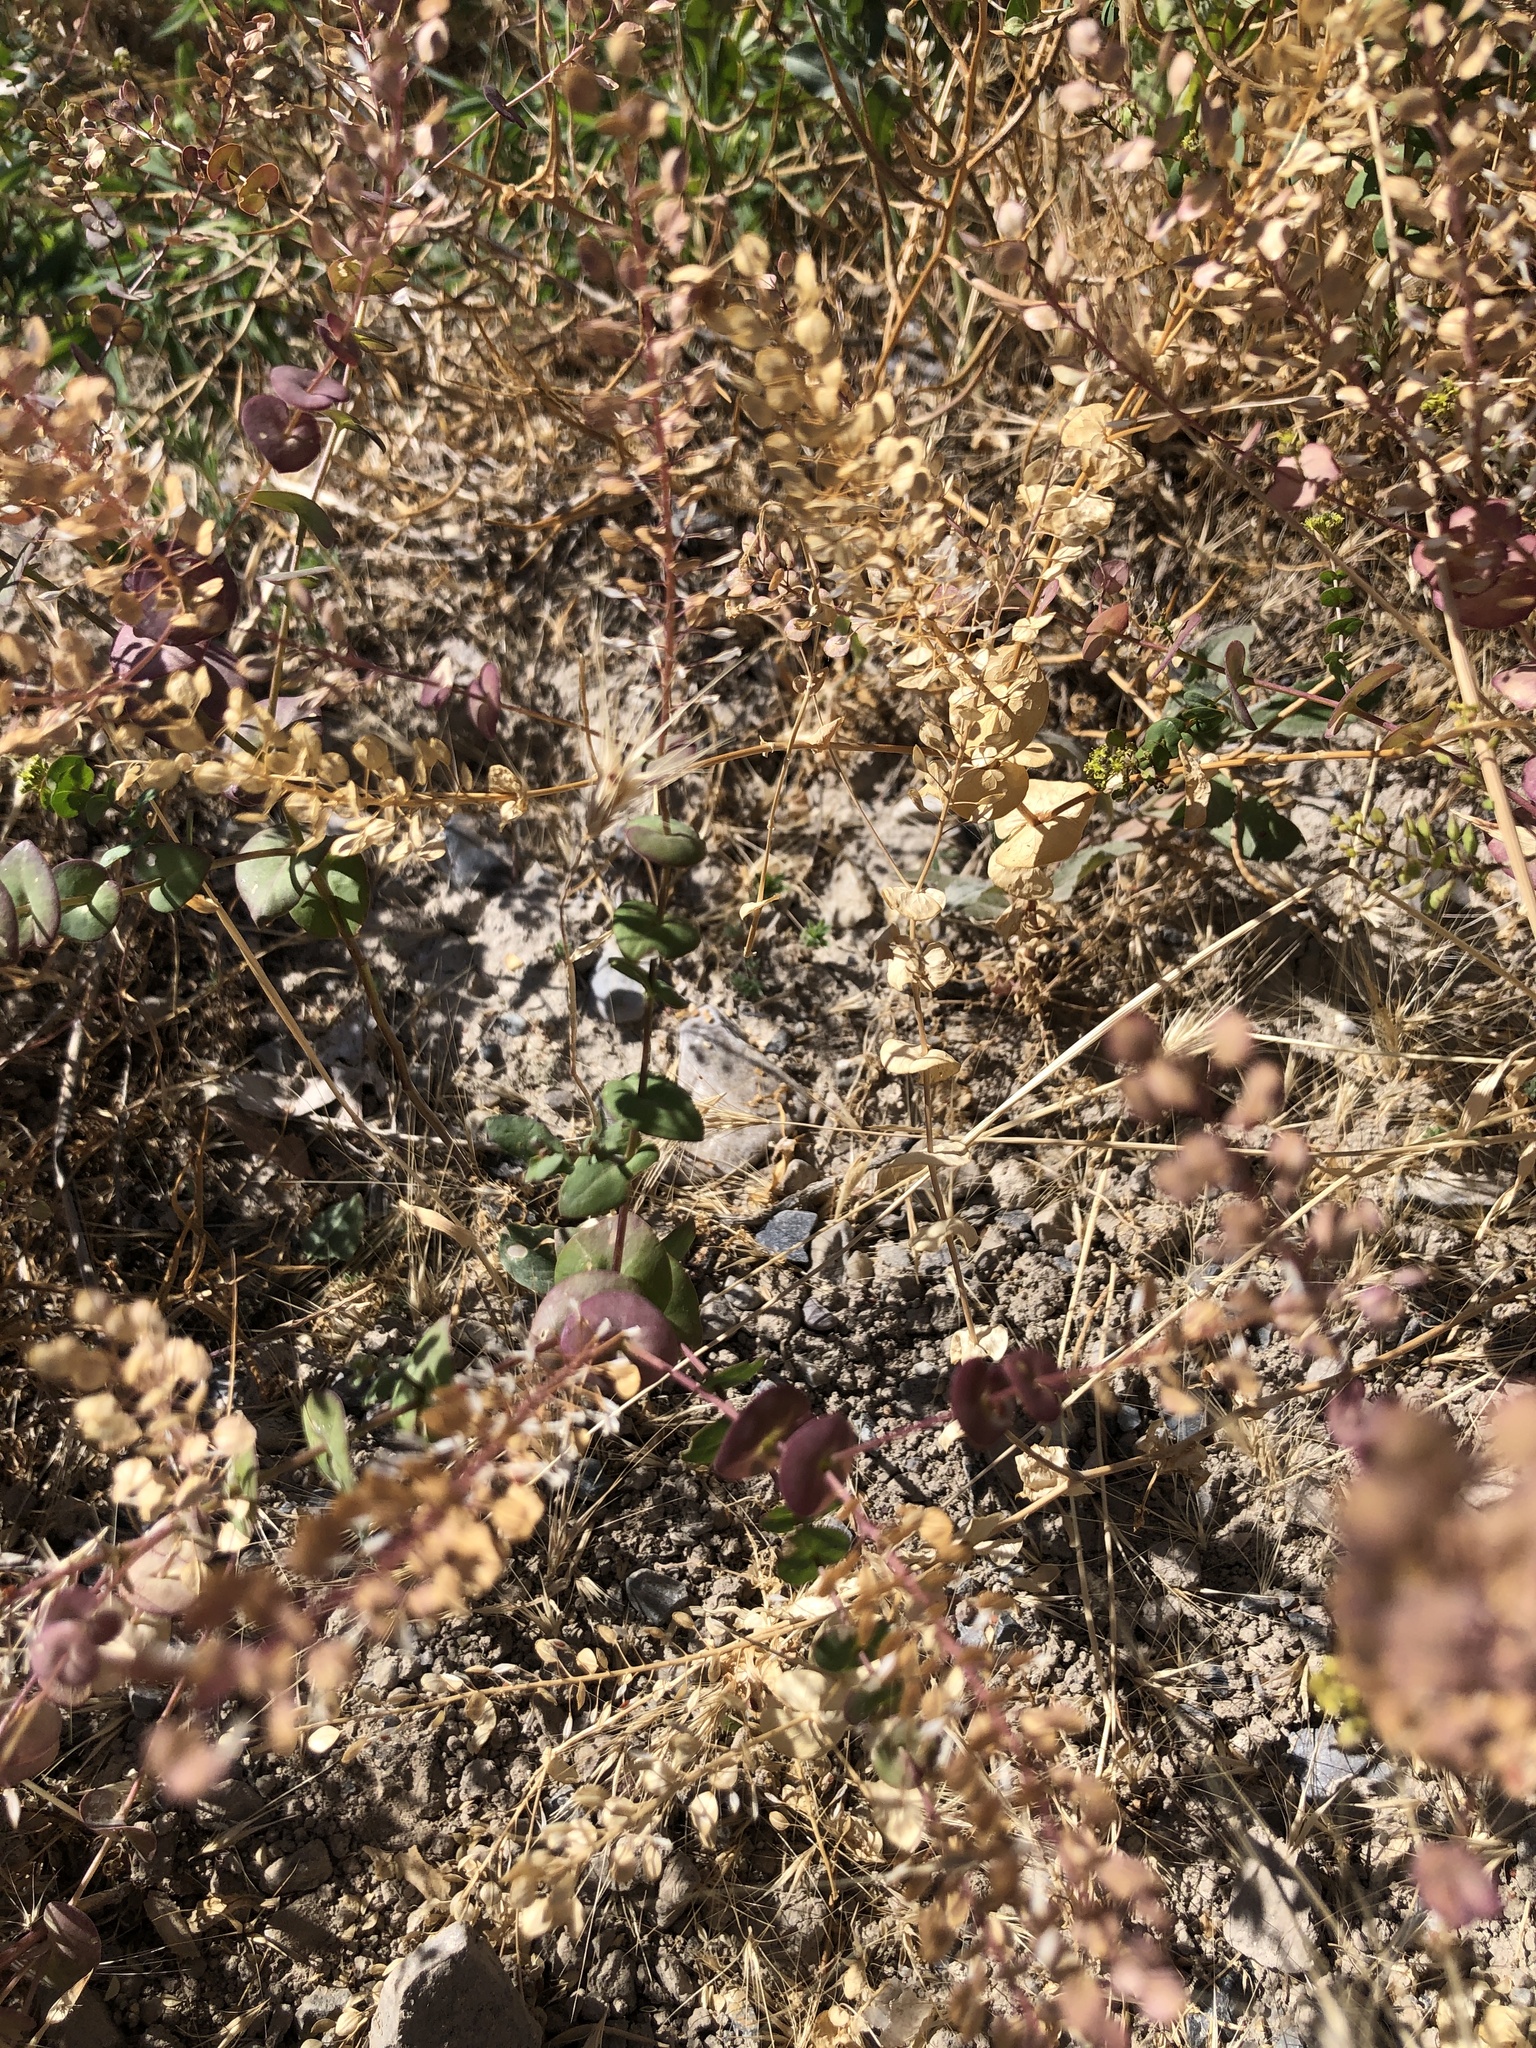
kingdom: Plantae
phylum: Tracheophyta
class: Magnoliopsida
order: Brassicales
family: Brassicaceae
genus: Lepidium
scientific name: Lepidium perfoliatum
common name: Perfoliate pepperwort
